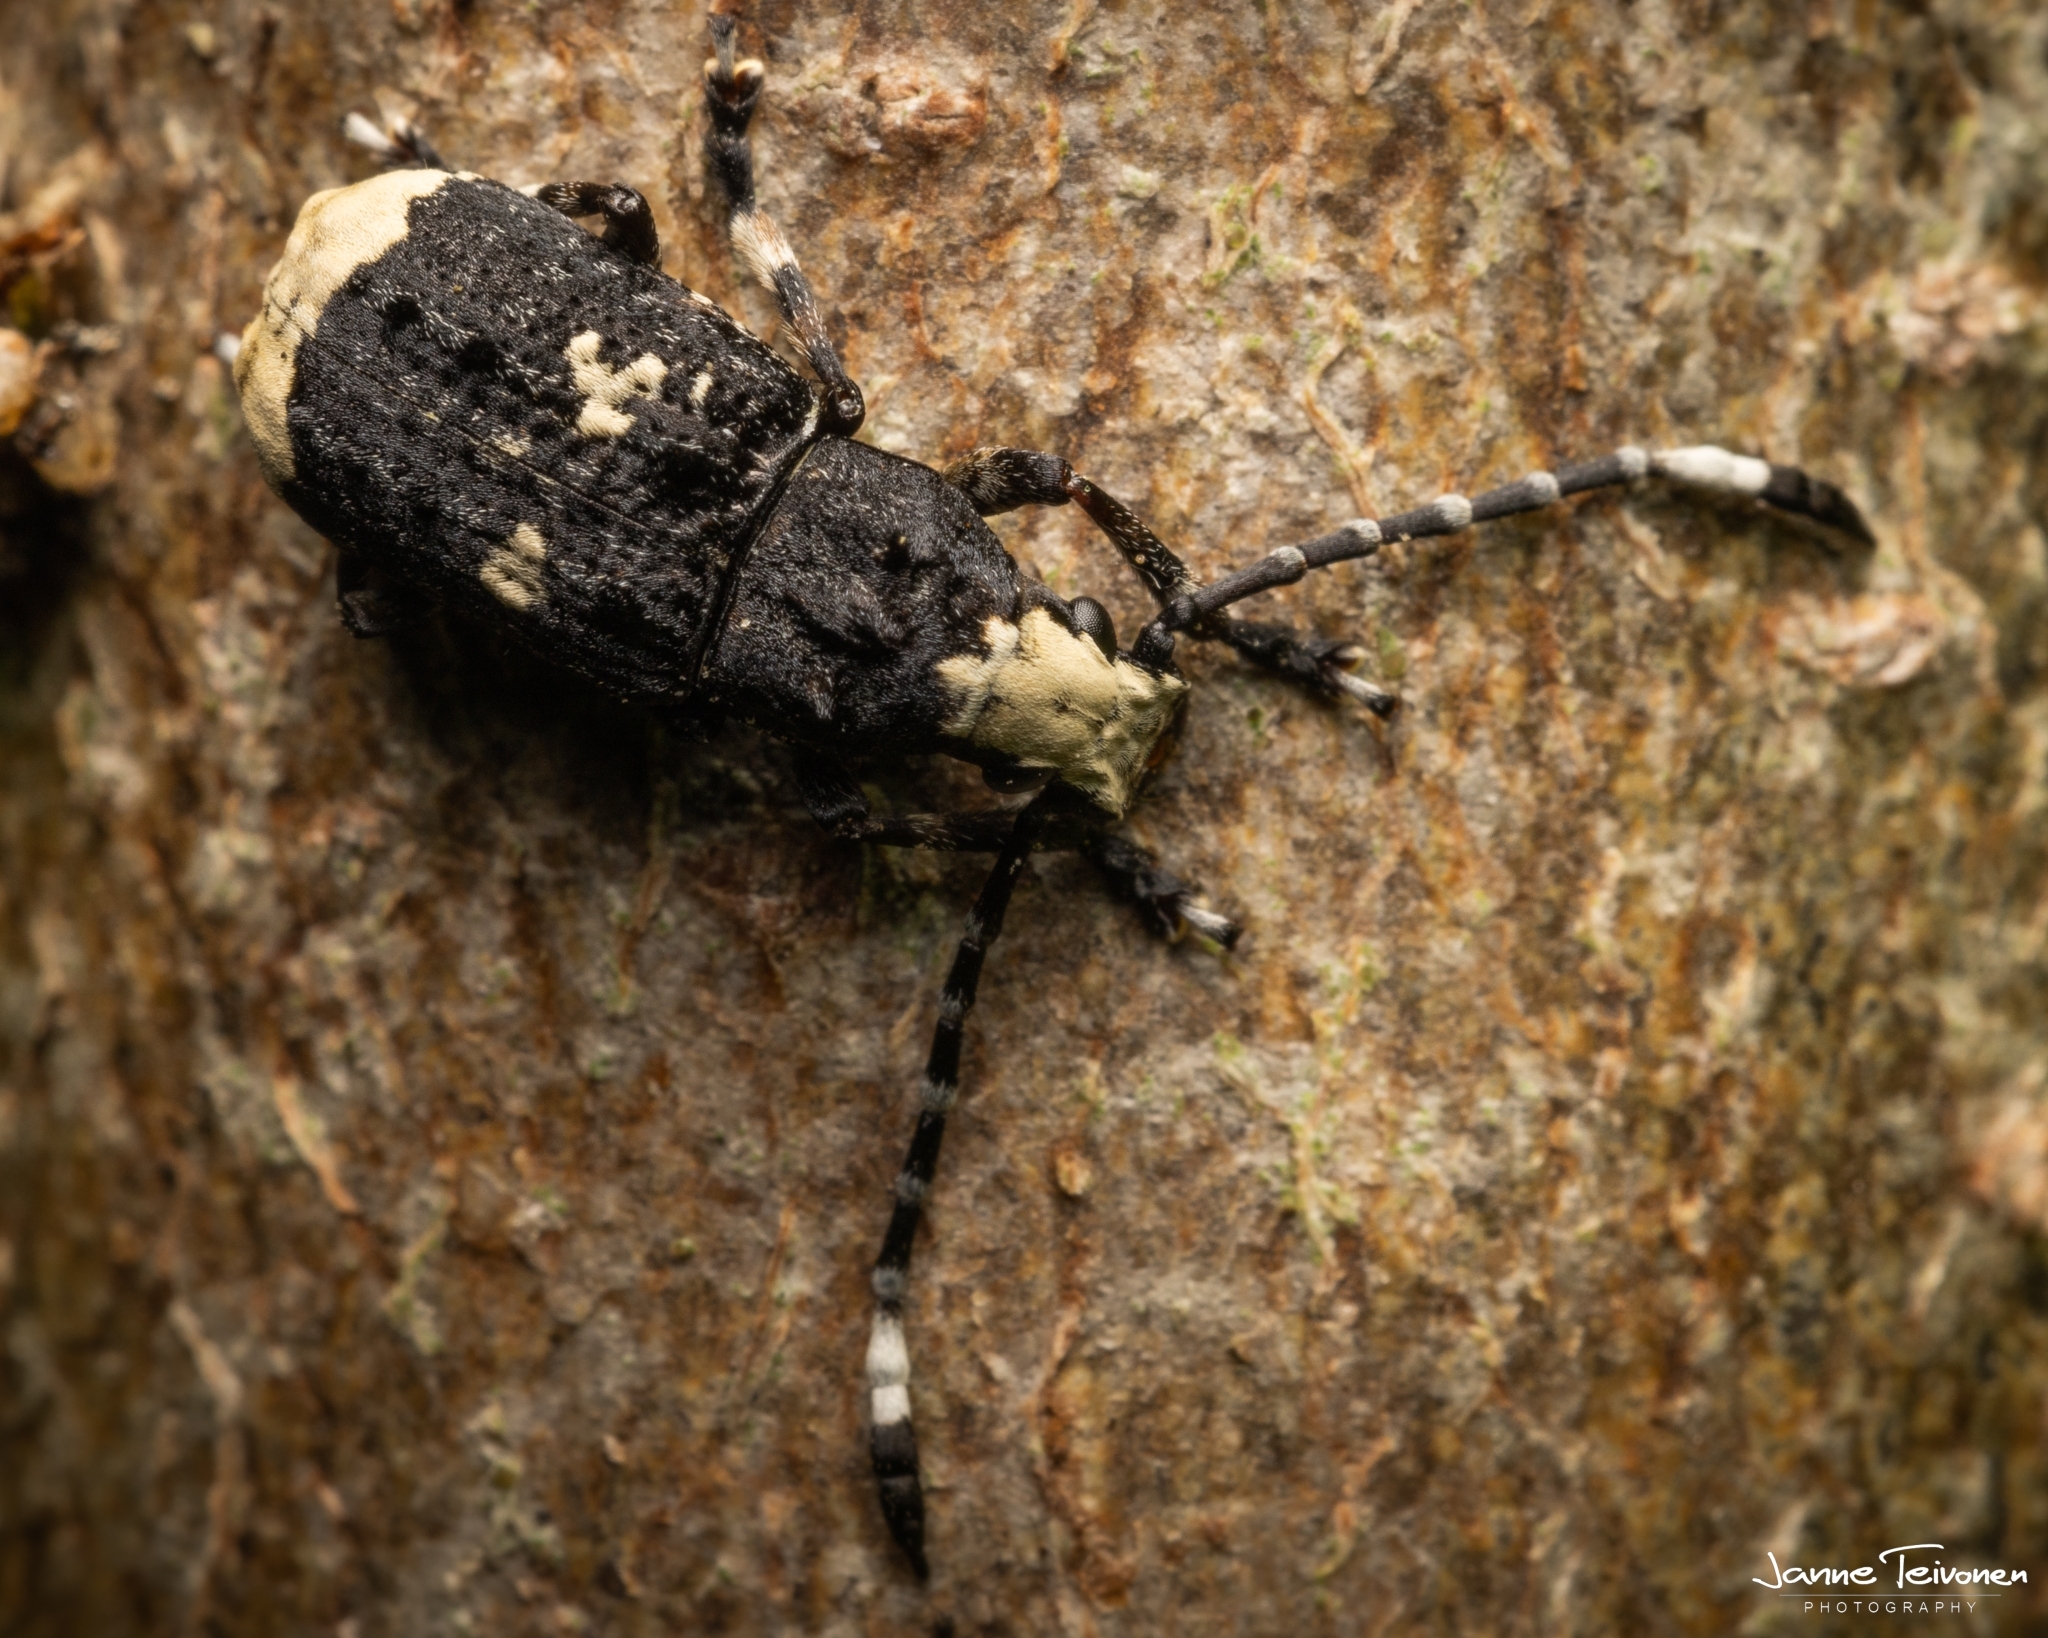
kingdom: Animalia
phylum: Arthropoda
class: Insecta
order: Coleoptera
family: Anthribidae
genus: Platystomos
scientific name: Platystomos albinus
